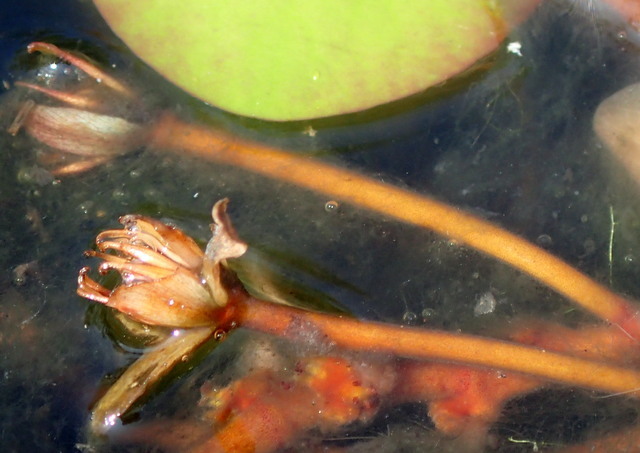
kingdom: Plantae
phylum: Tracheophyta
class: Magnoliopsida
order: Nymphaeales
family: Cabombaceae
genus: Brasenia
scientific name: Brasenia schreberi
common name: Water-shield
